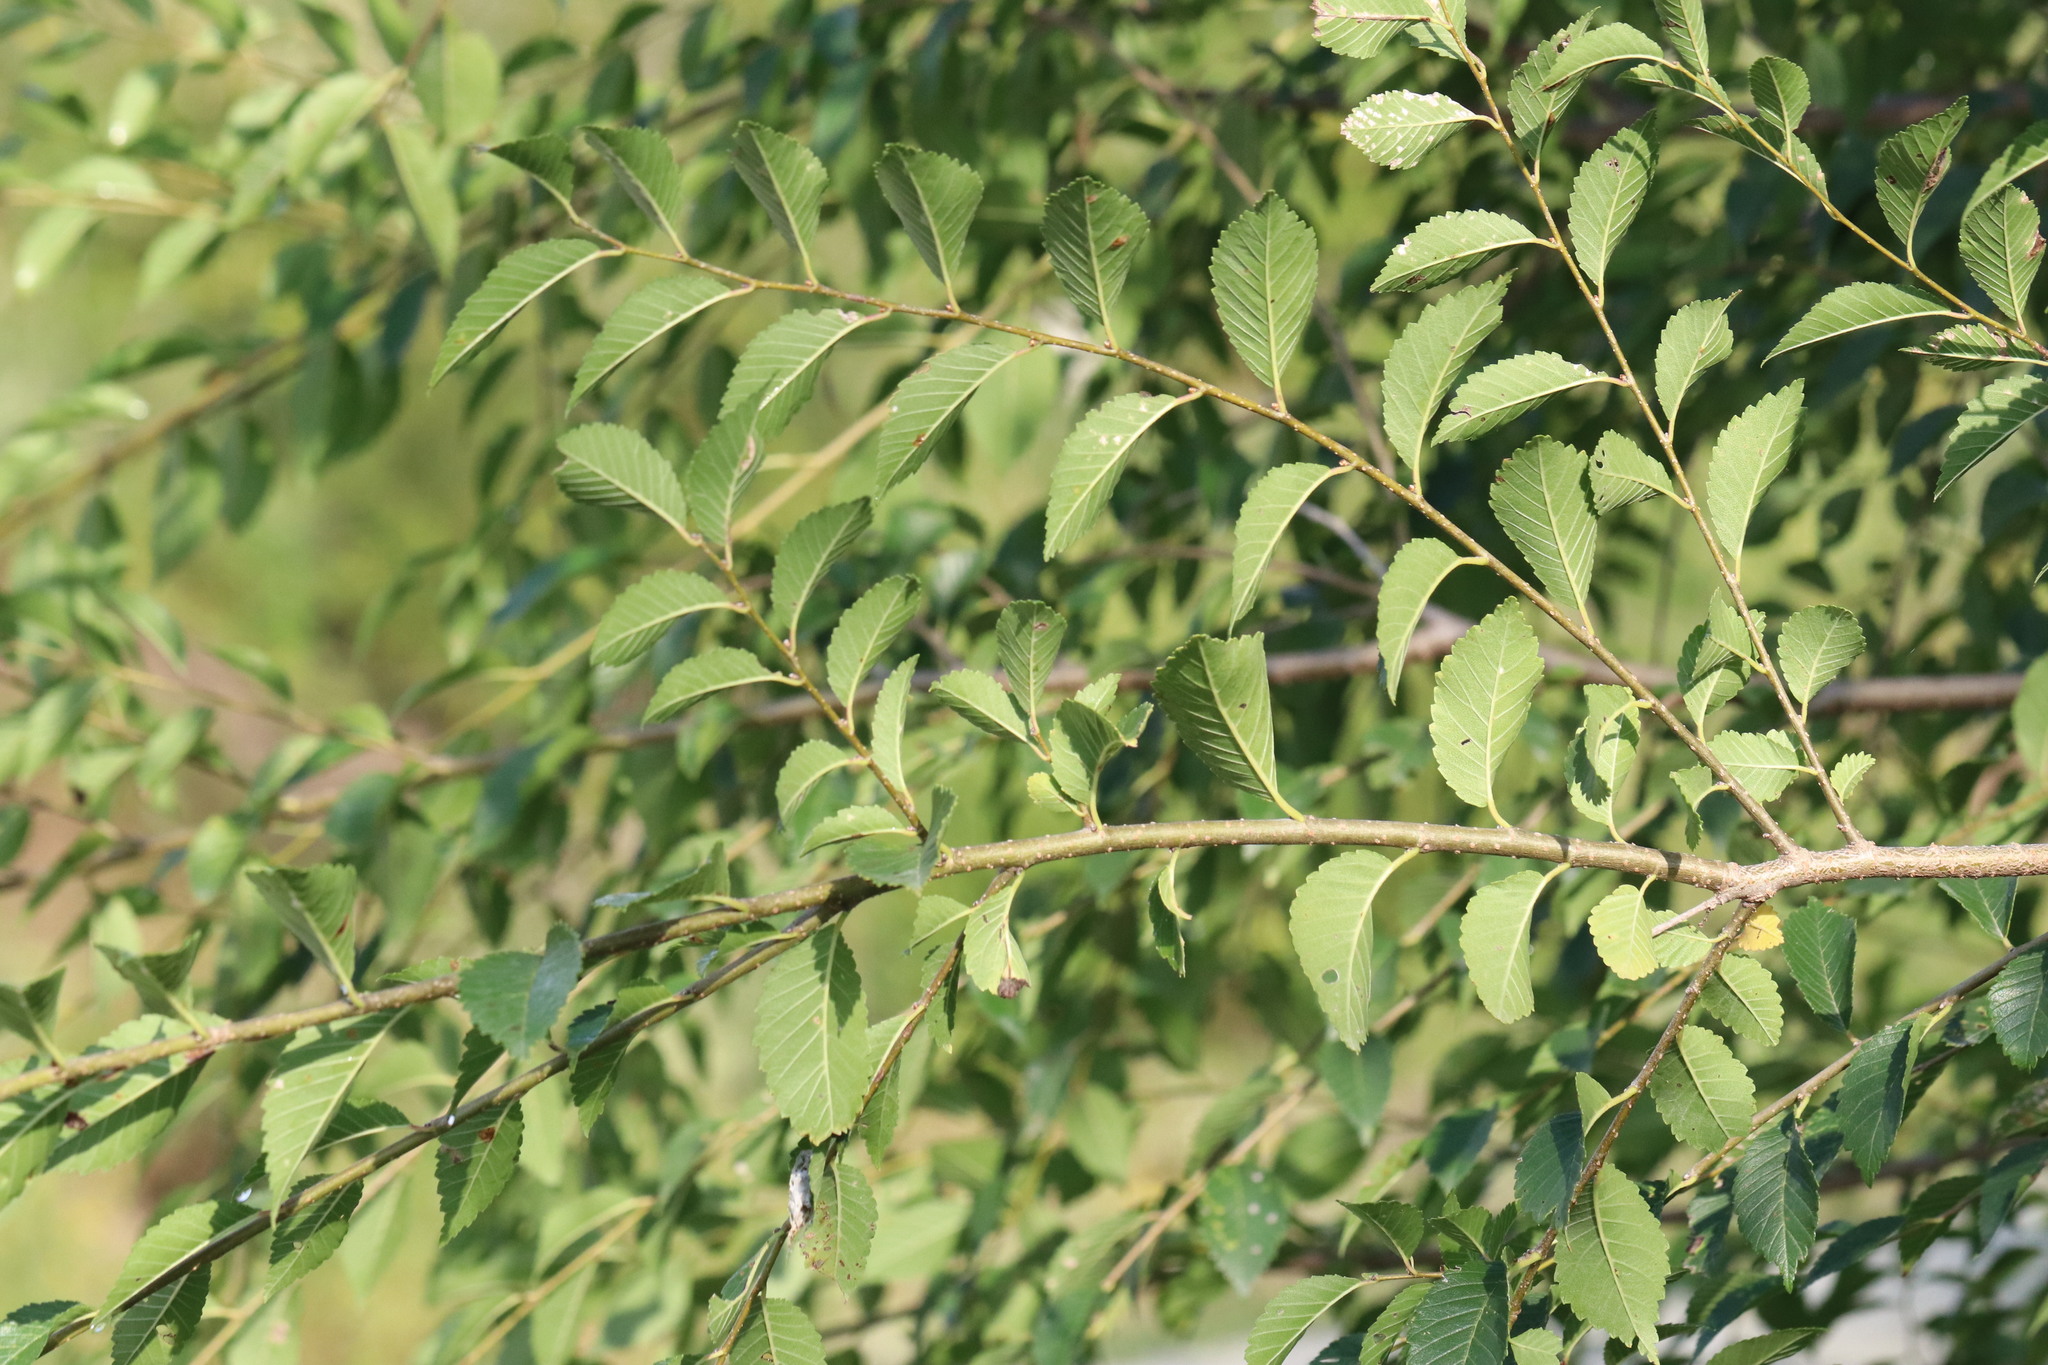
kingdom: Plantae
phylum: Tracheophyta
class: Magnoliopsida
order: Rosales
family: Ulmaceae
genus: Ulmus
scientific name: Ulmus pumila
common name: Siberian elm
